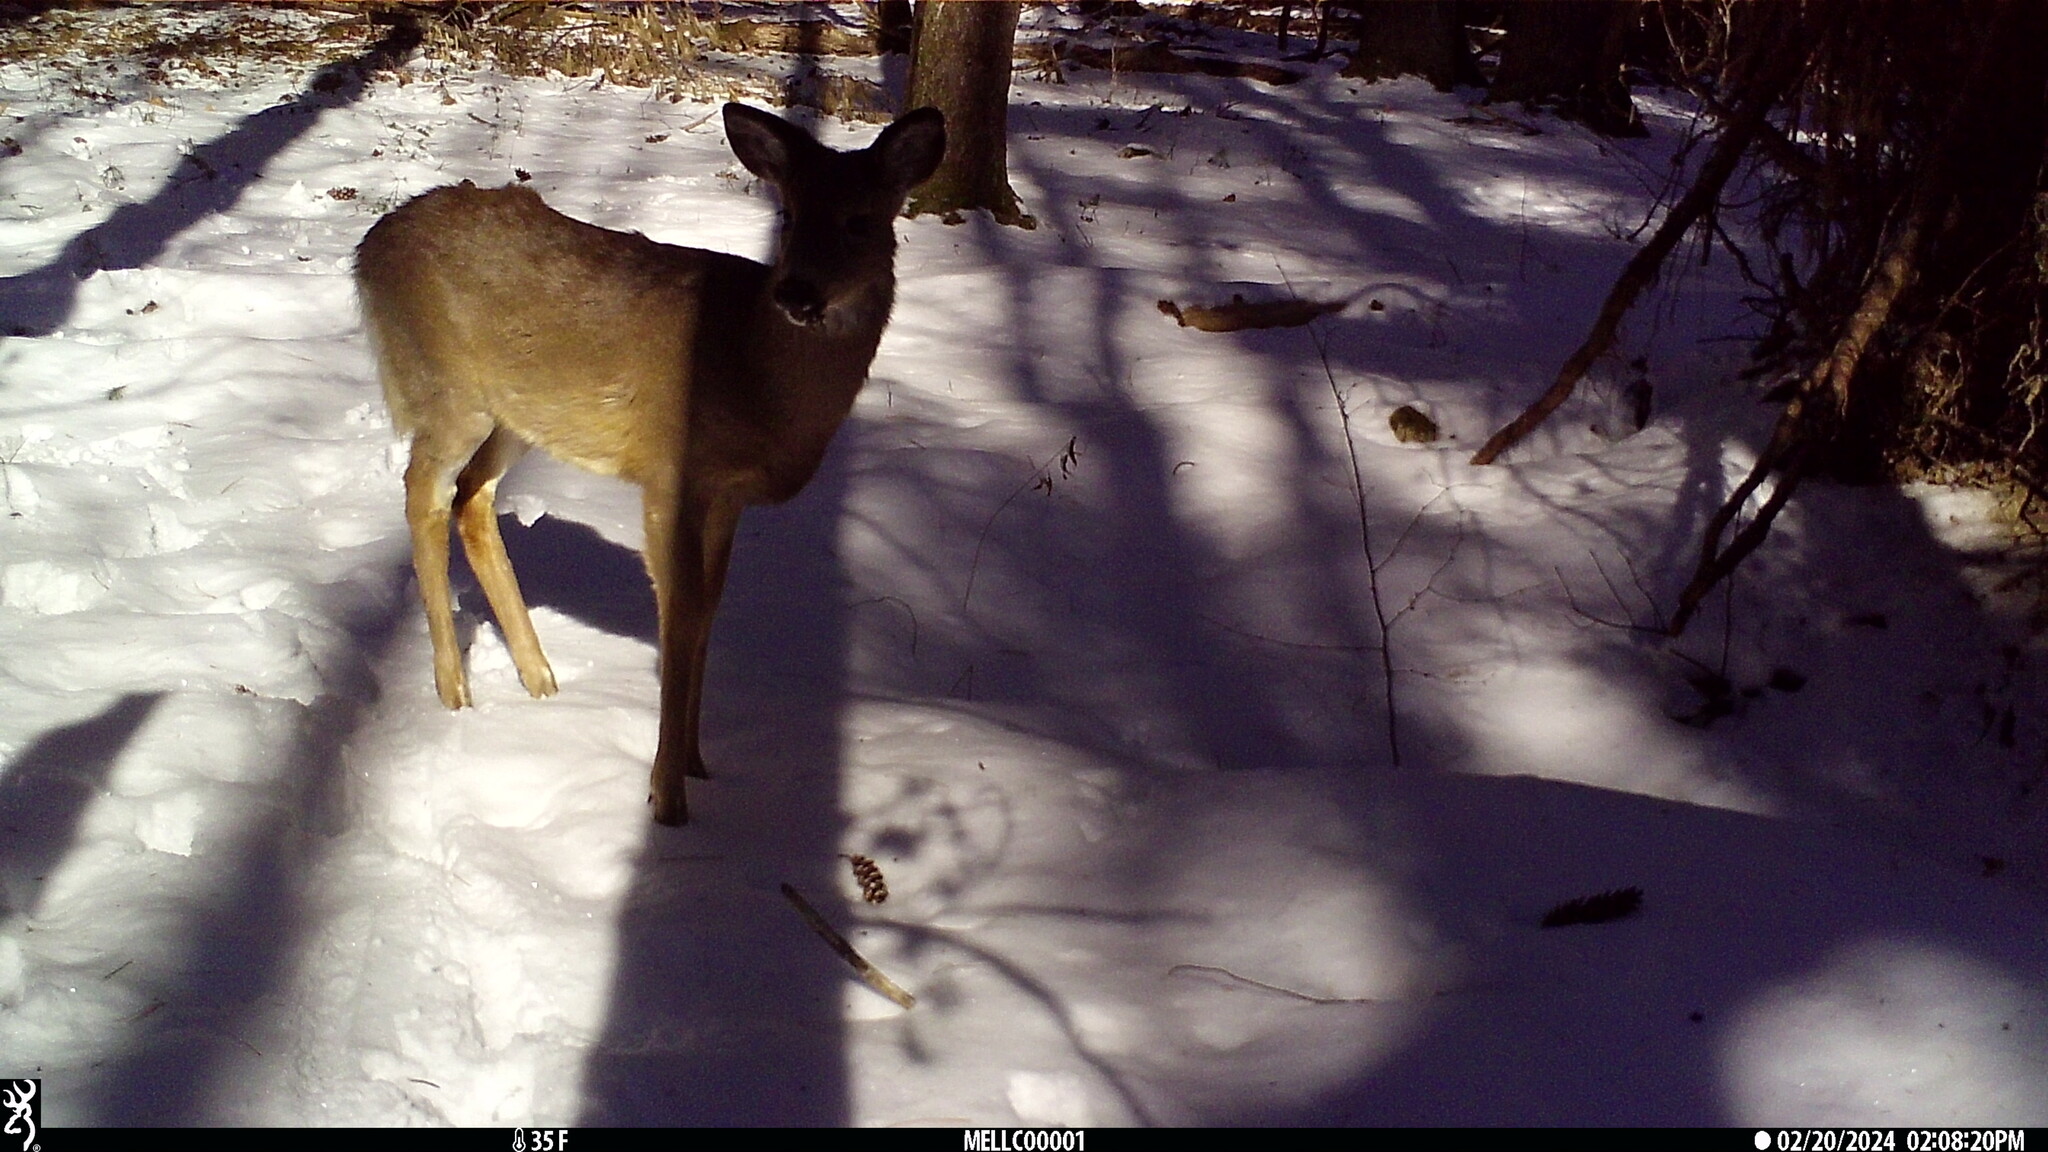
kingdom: Animalia
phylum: Chordata
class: Mammalia
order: Artiodactyla
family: Cervidae
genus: Odocoileus
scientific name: Odocoileus virginianus
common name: White-tailed deer
